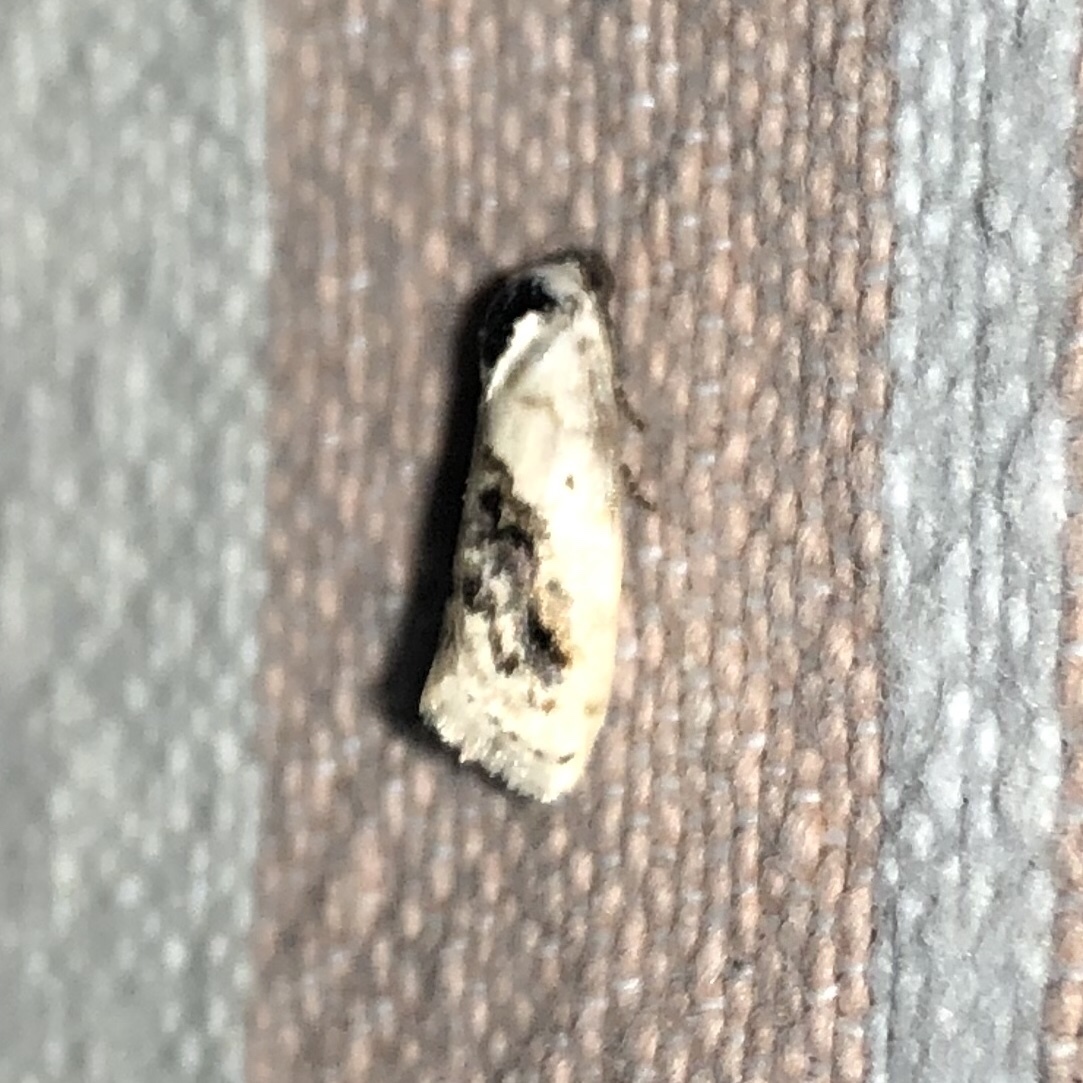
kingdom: Animalia
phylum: Arthropoda
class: Insecta
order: Lepidoptera
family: Noctuidae
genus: Acontia
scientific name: Acontia erastrioides
